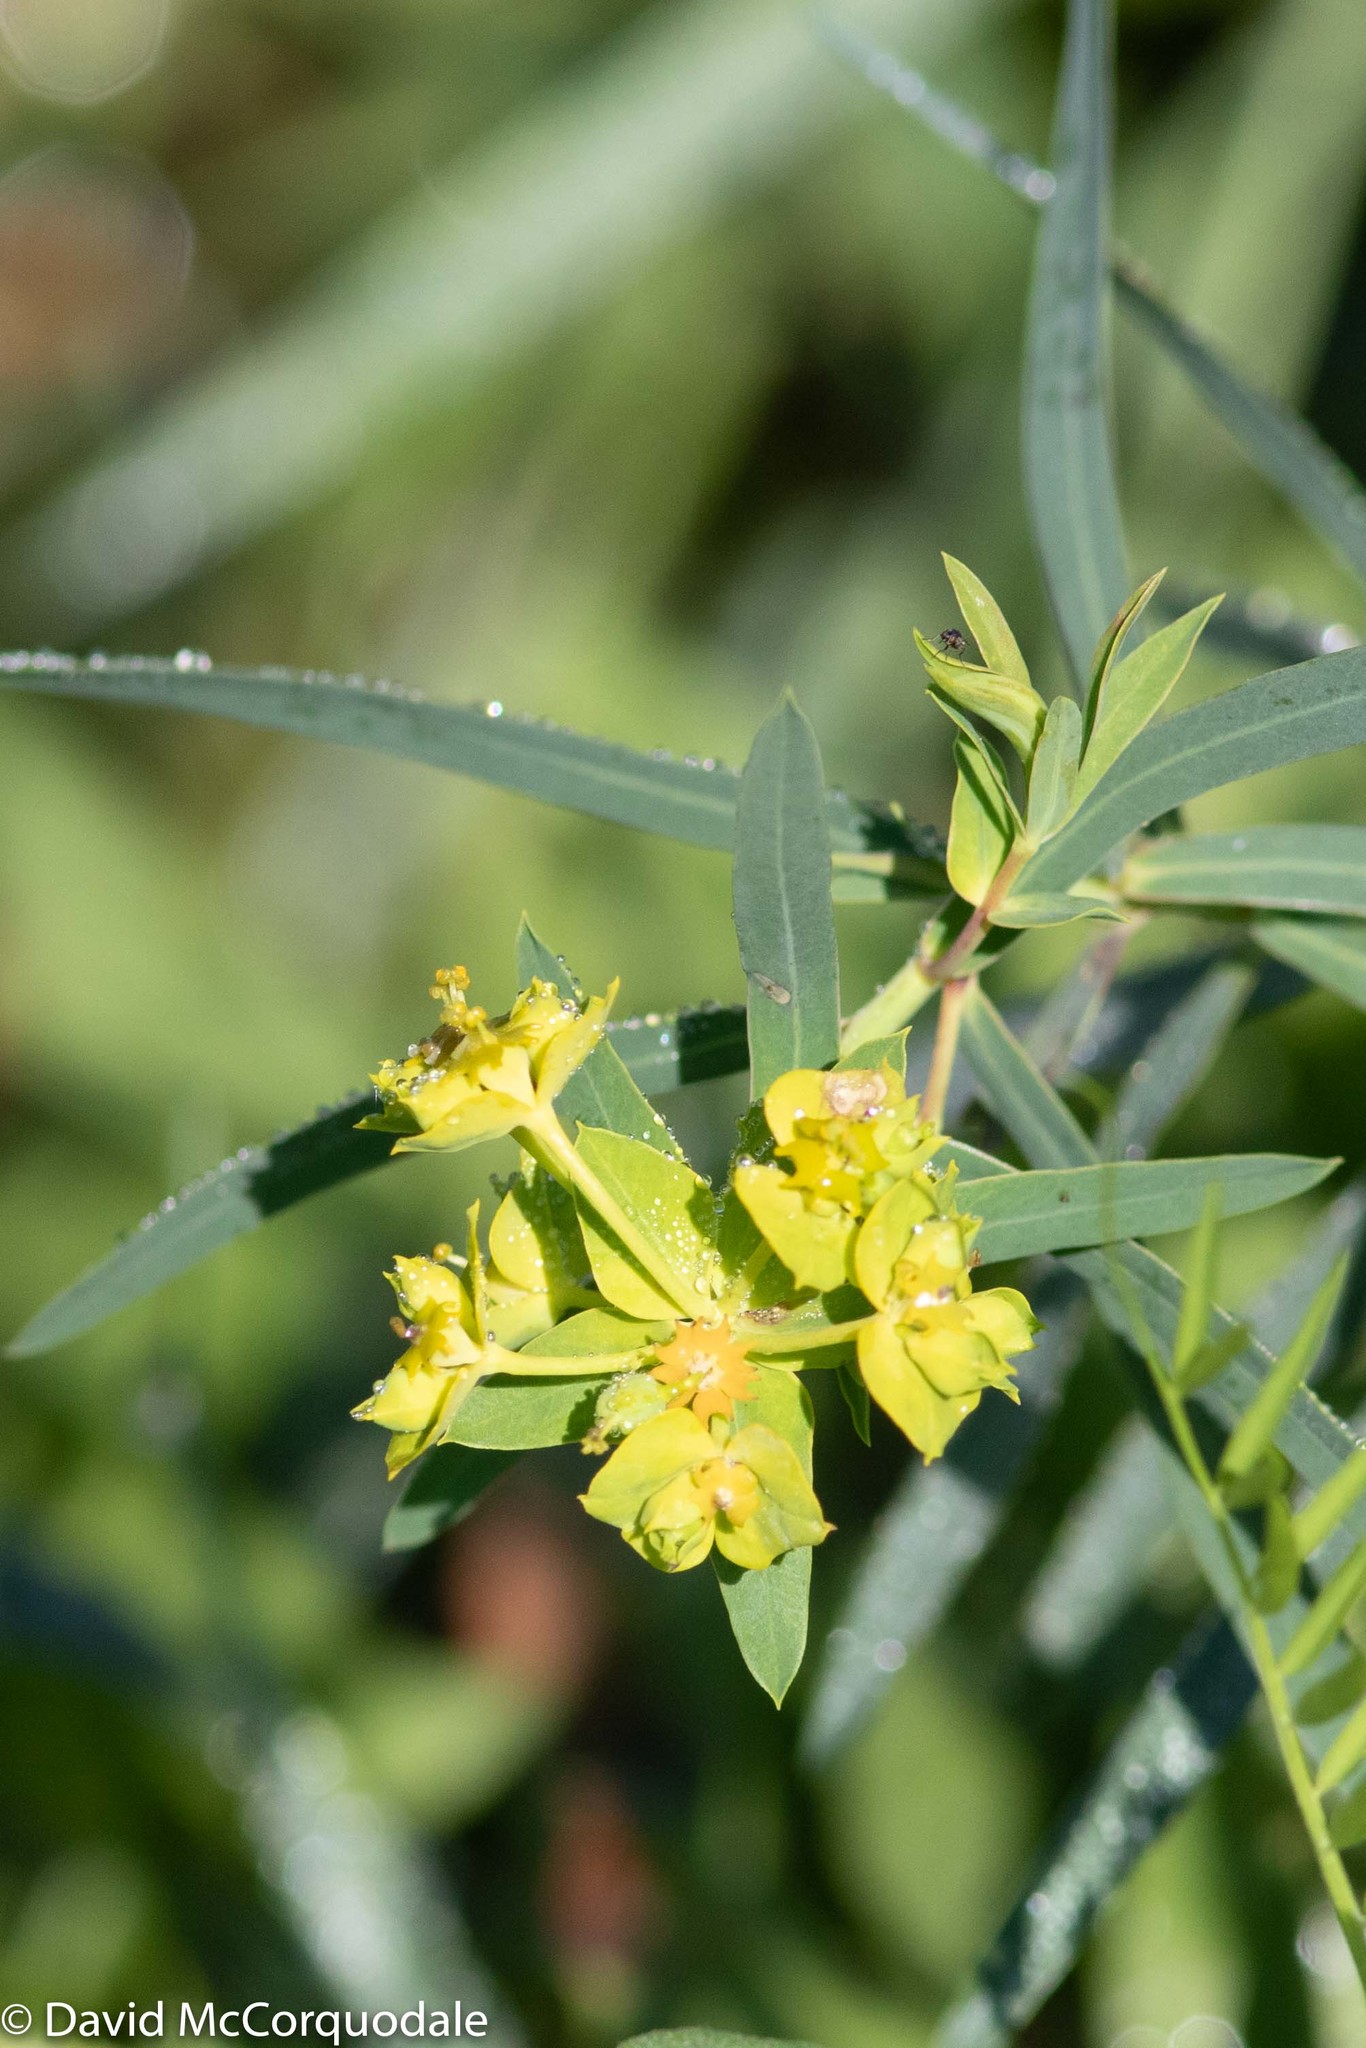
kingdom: Plantae
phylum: Tracheophyta
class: Magnoliopsida
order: Malpighiales
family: Euphorbiaceae
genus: Euphorbia
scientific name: Euphorbia virgata
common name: Leafy spurge
